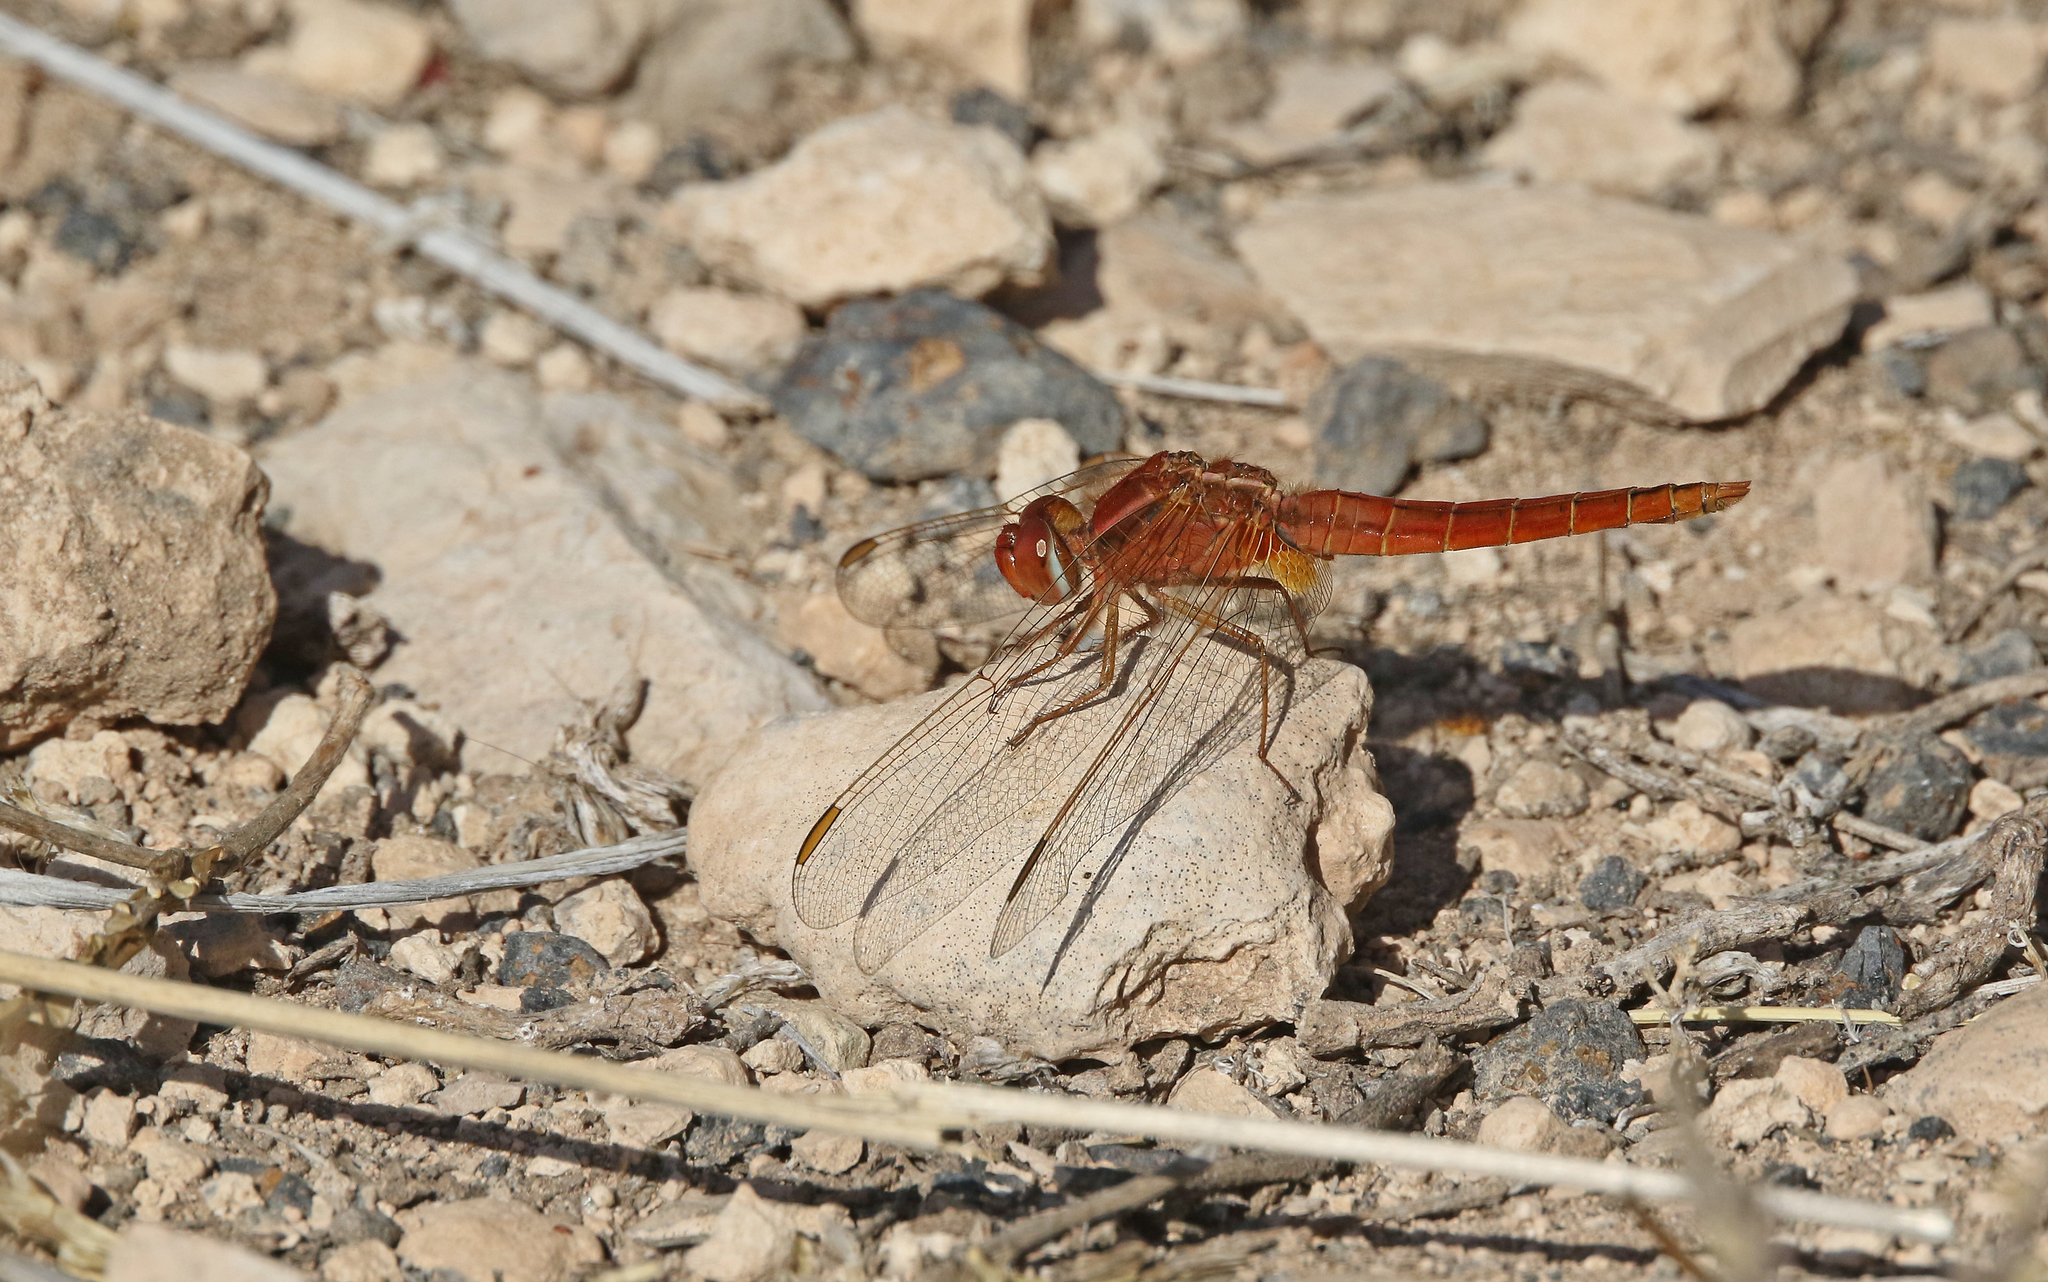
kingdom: Animalia
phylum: Arthropoda
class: Insecta
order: Odonata
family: Libellulidae
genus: Crocothemis
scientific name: Crocothemis erythraea
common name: Scarlet dragonfly
